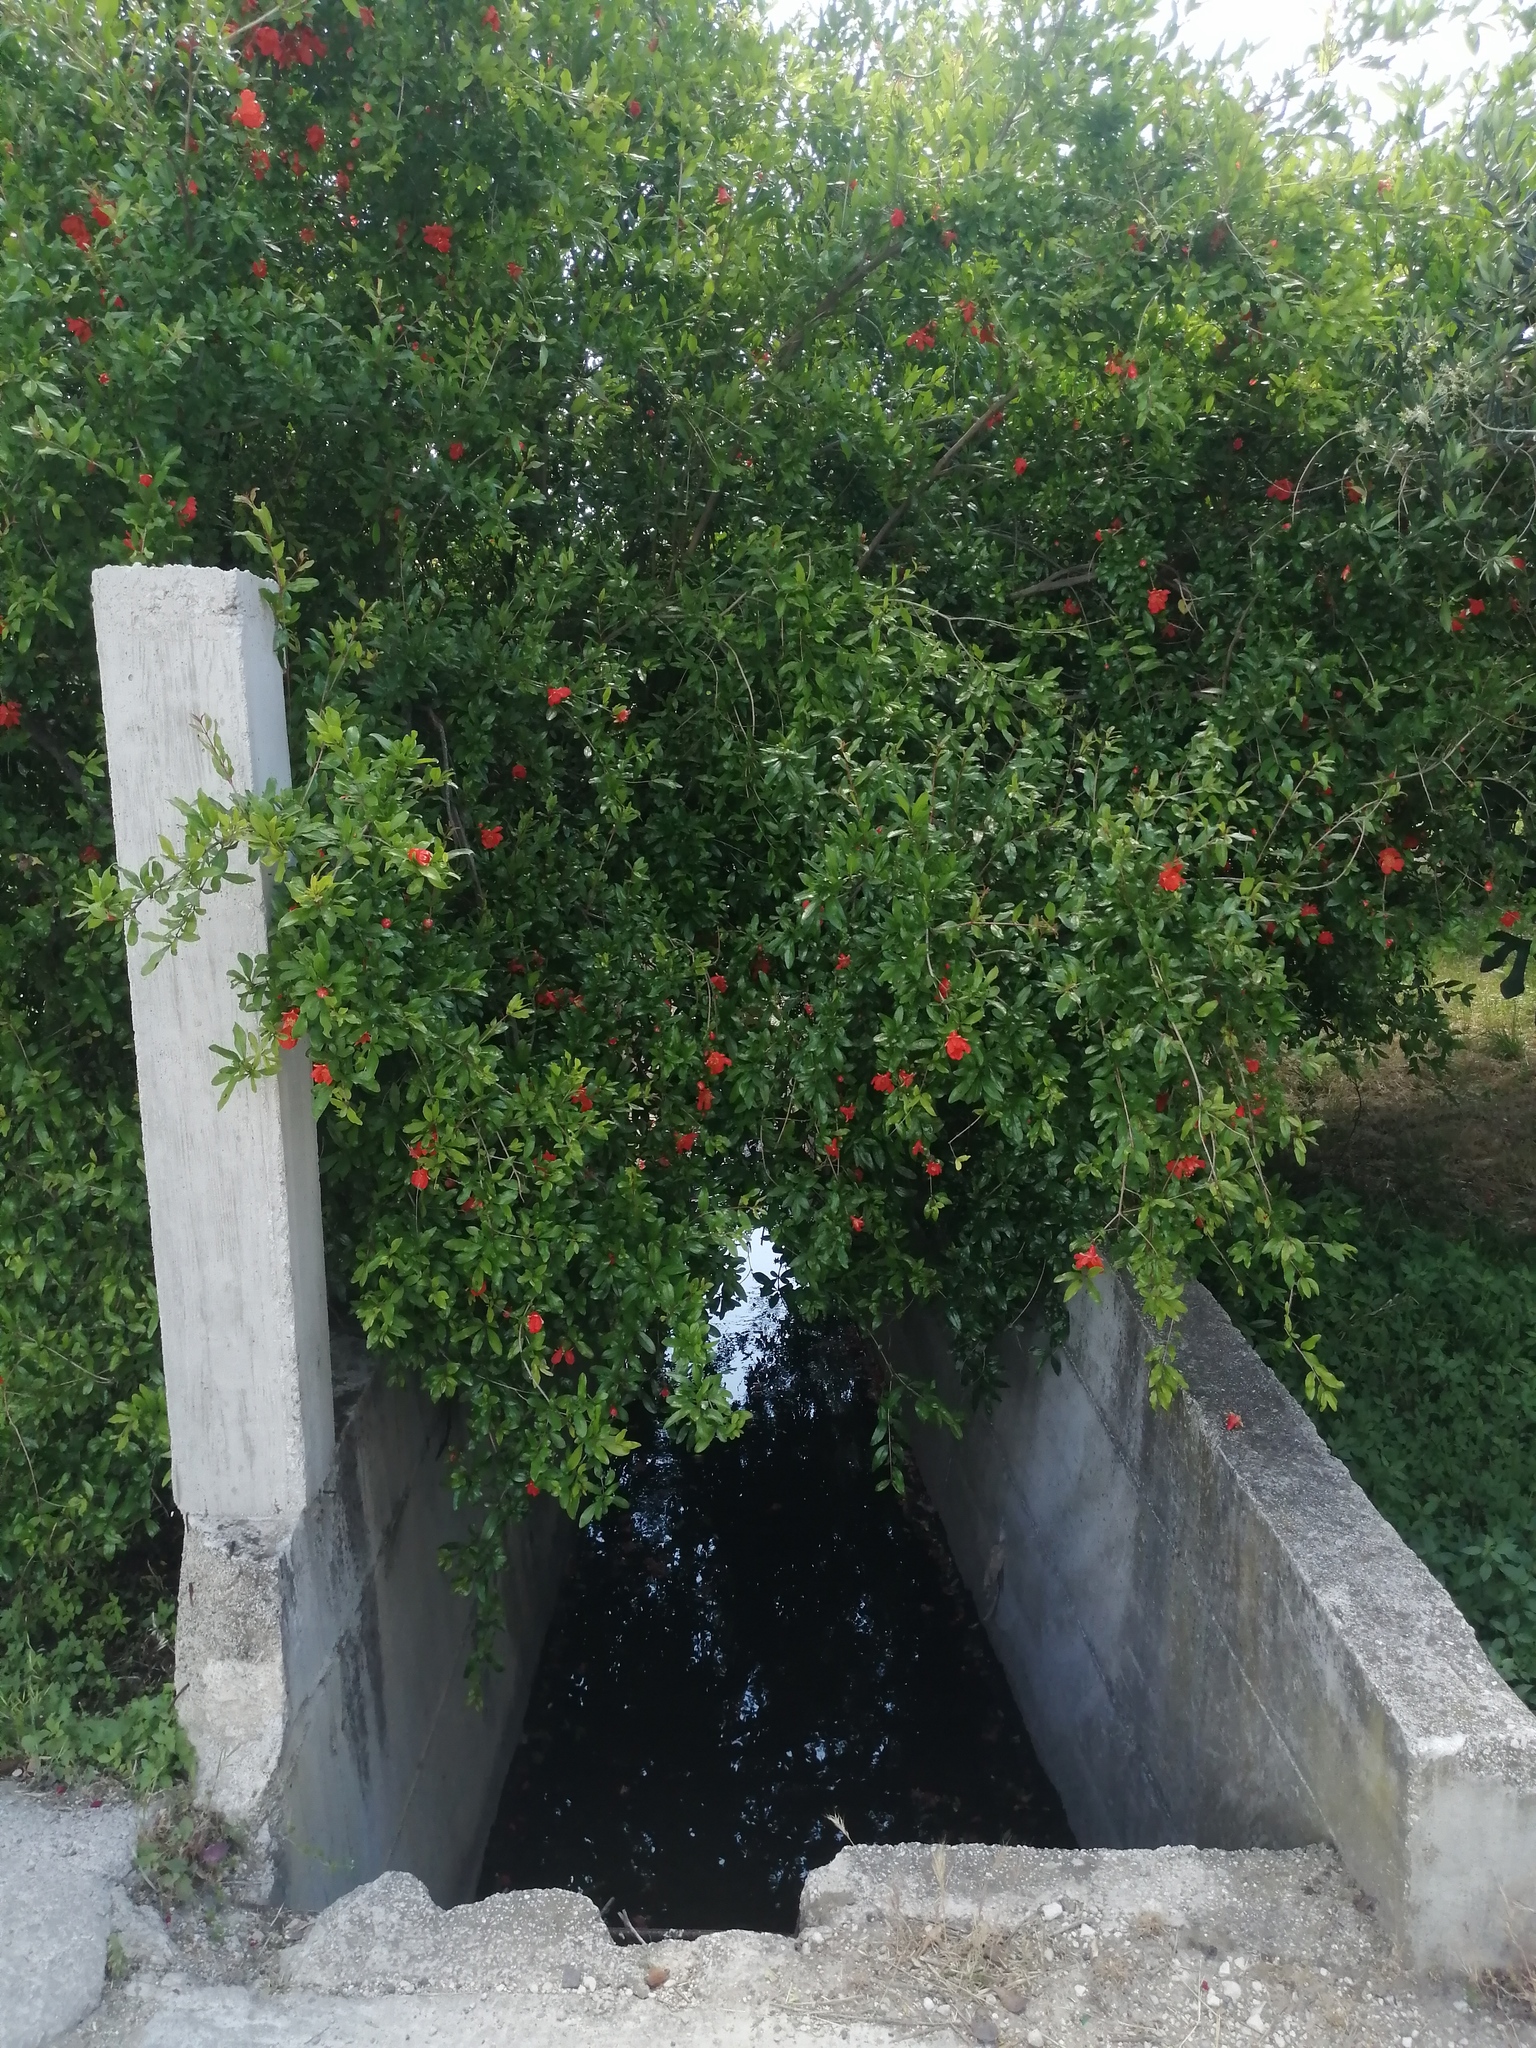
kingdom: Plantae
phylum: Tracheophyta
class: Magnoliopsida
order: Myrtales
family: Lythraceae
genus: Punica
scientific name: Punica granatum
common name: Pomegranate
